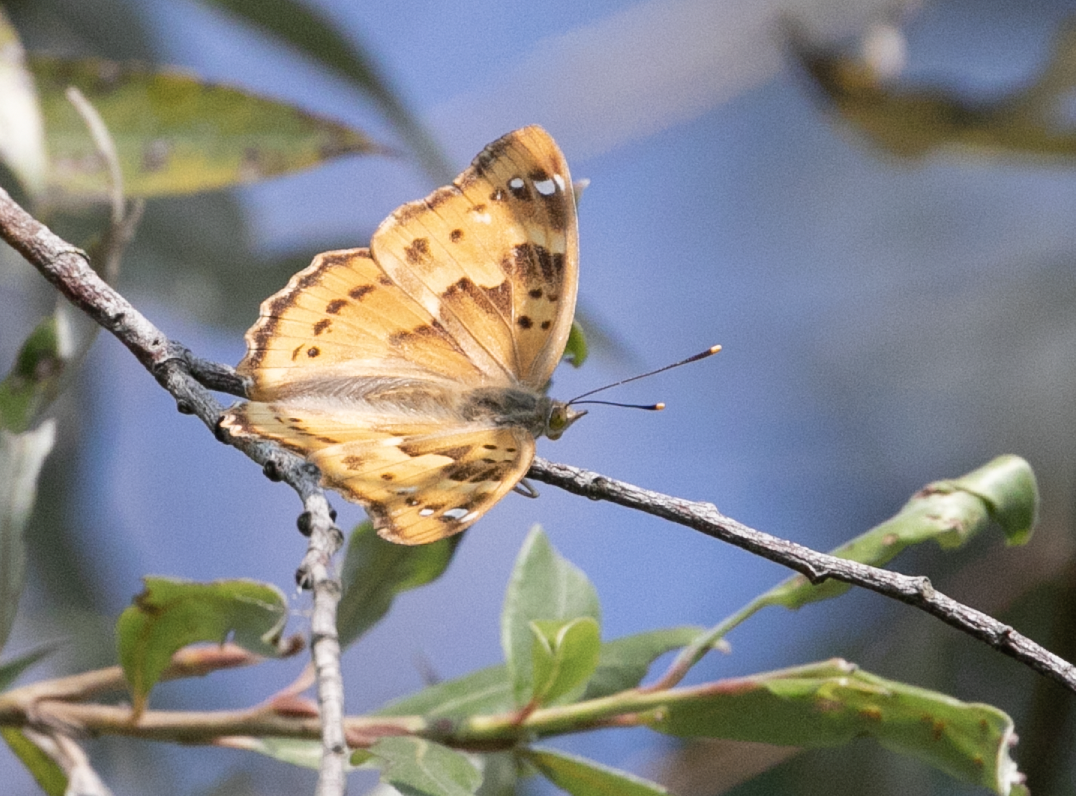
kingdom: Animalia
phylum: Arthropoda
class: Insecta
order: Lepidoptera
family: Nymphalidae
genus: Apatura
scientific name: Apatura ilia
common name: Lesser purple emperor
